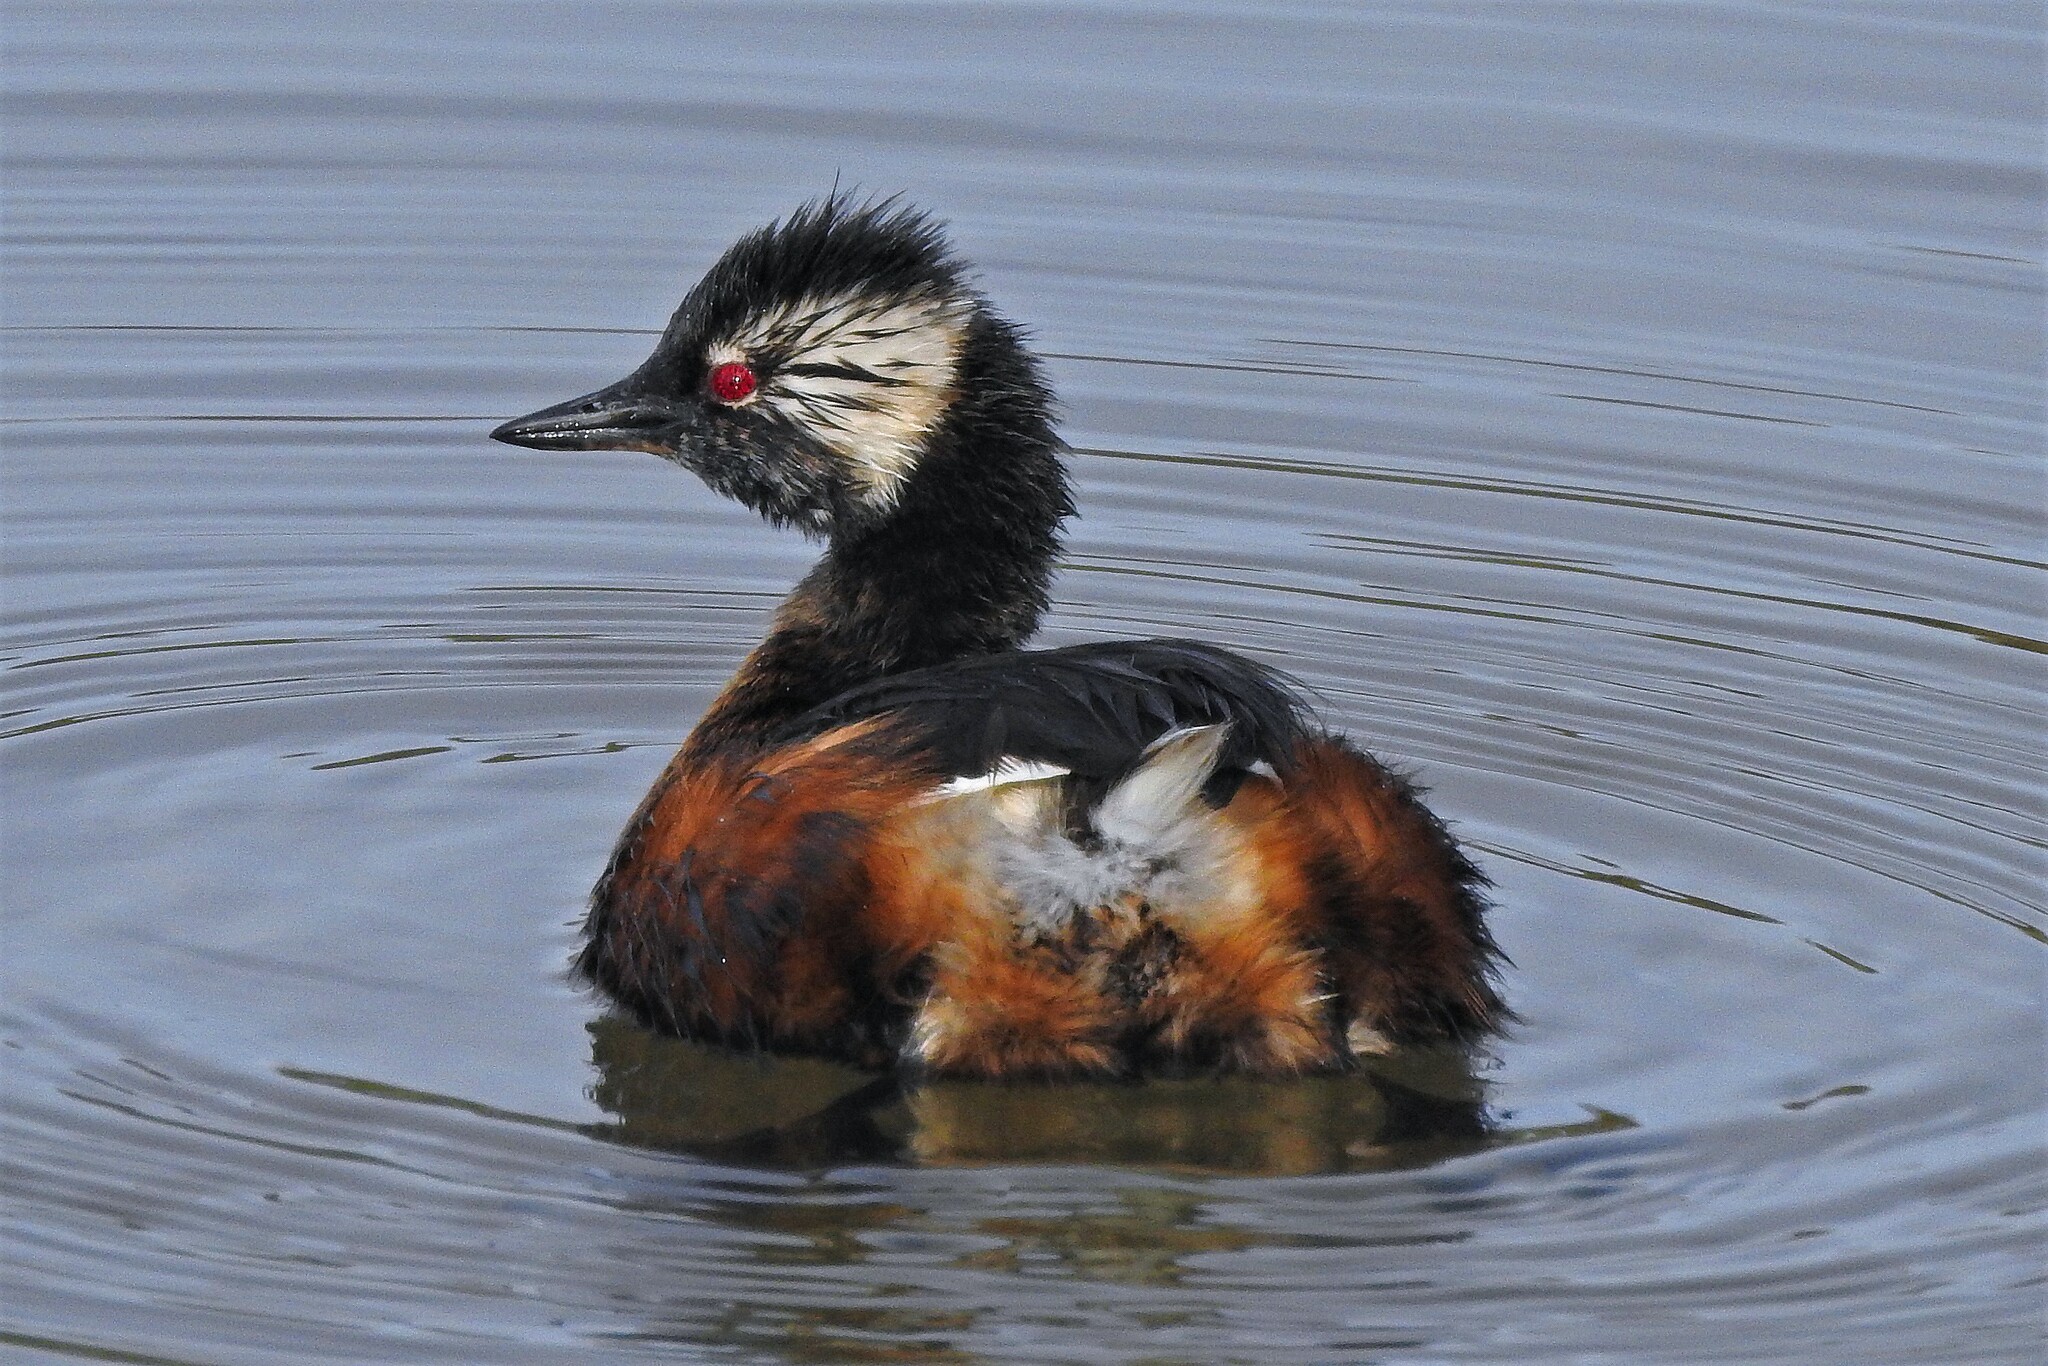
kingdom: Animalia
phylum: Chordata
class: Aves
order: Podicipediformes
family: Podicipedidae
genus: Rollandia
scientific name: Rollandia rolland
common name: White-tufted grebe
